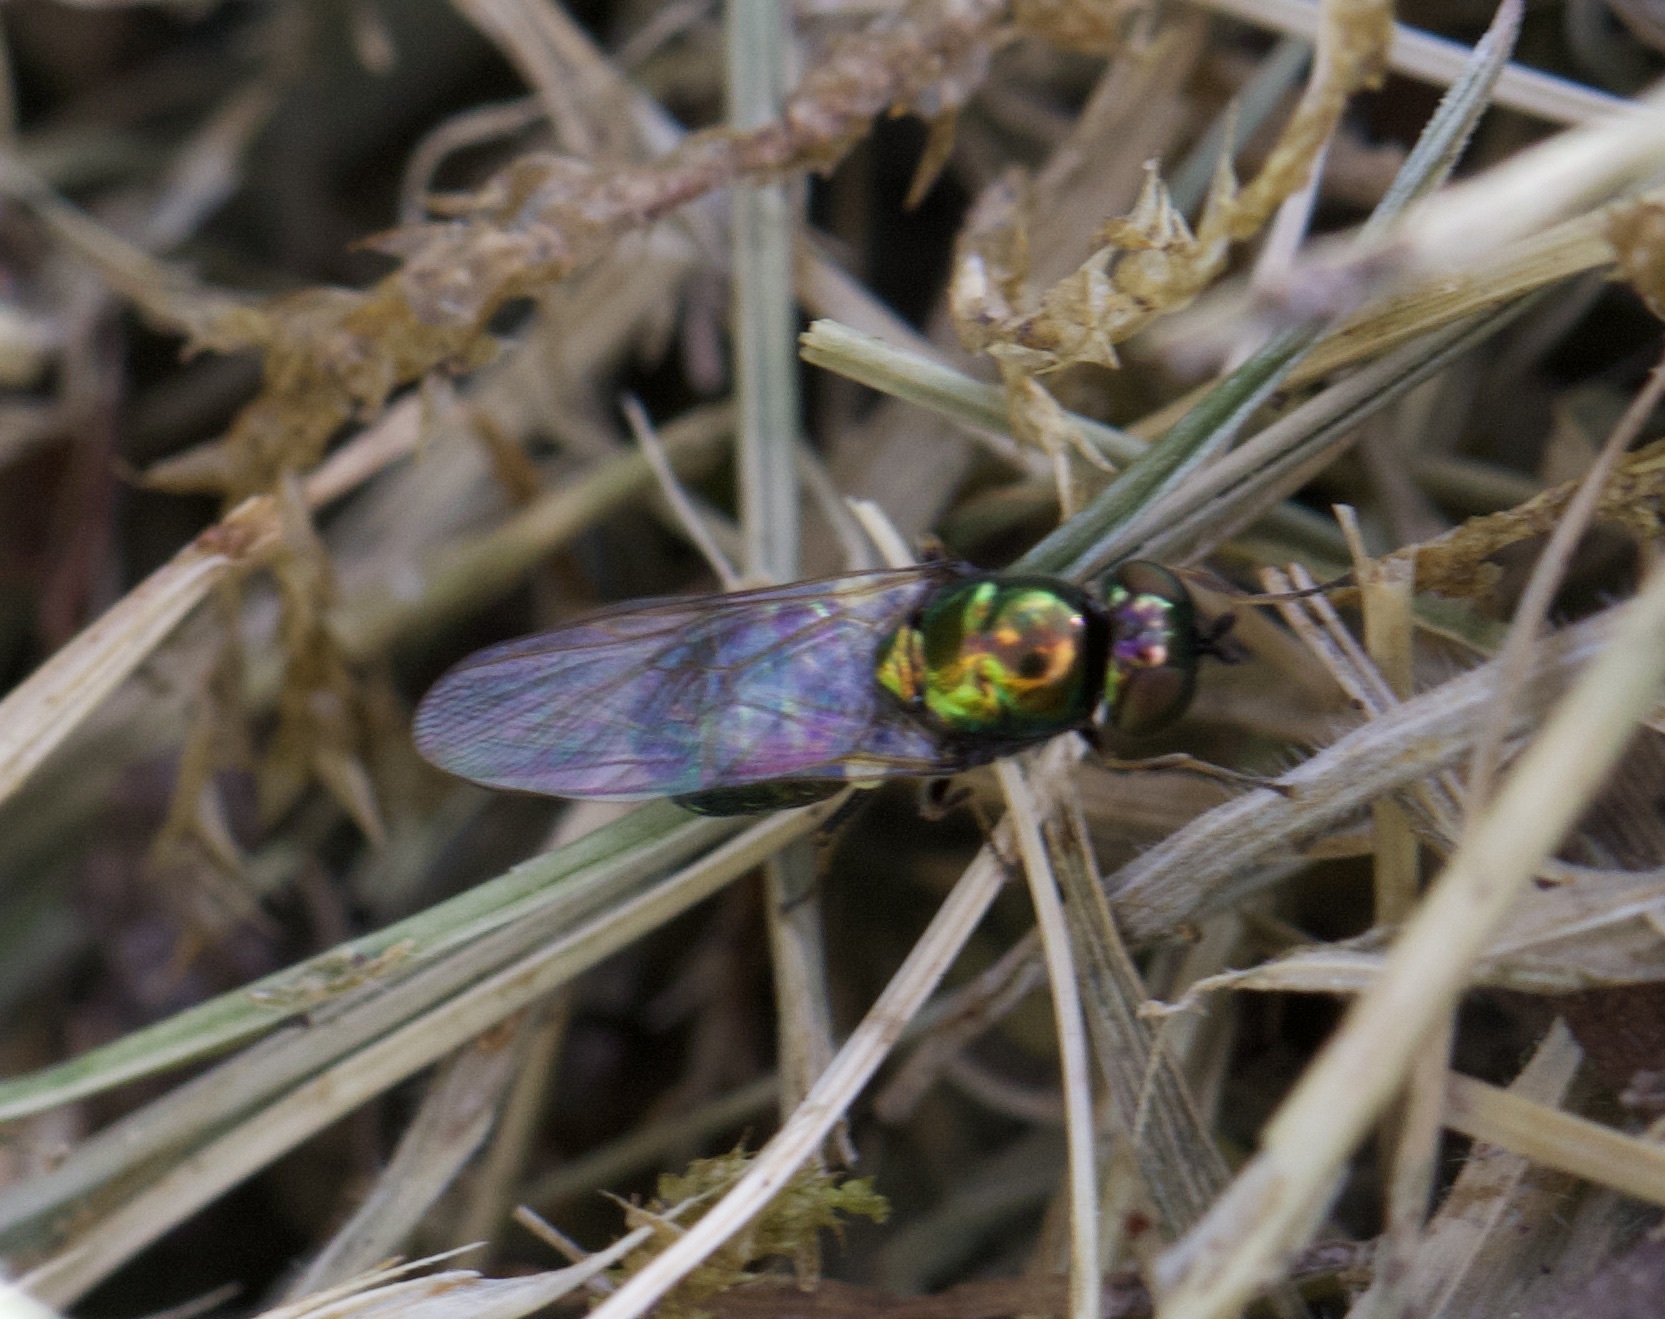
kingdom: Animalia
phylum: Arthropoda
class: Insecta
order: Diptera
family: Stratiomyidae
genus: Microchrysa
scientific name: Microchrysa polita
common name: Black-horned gem
